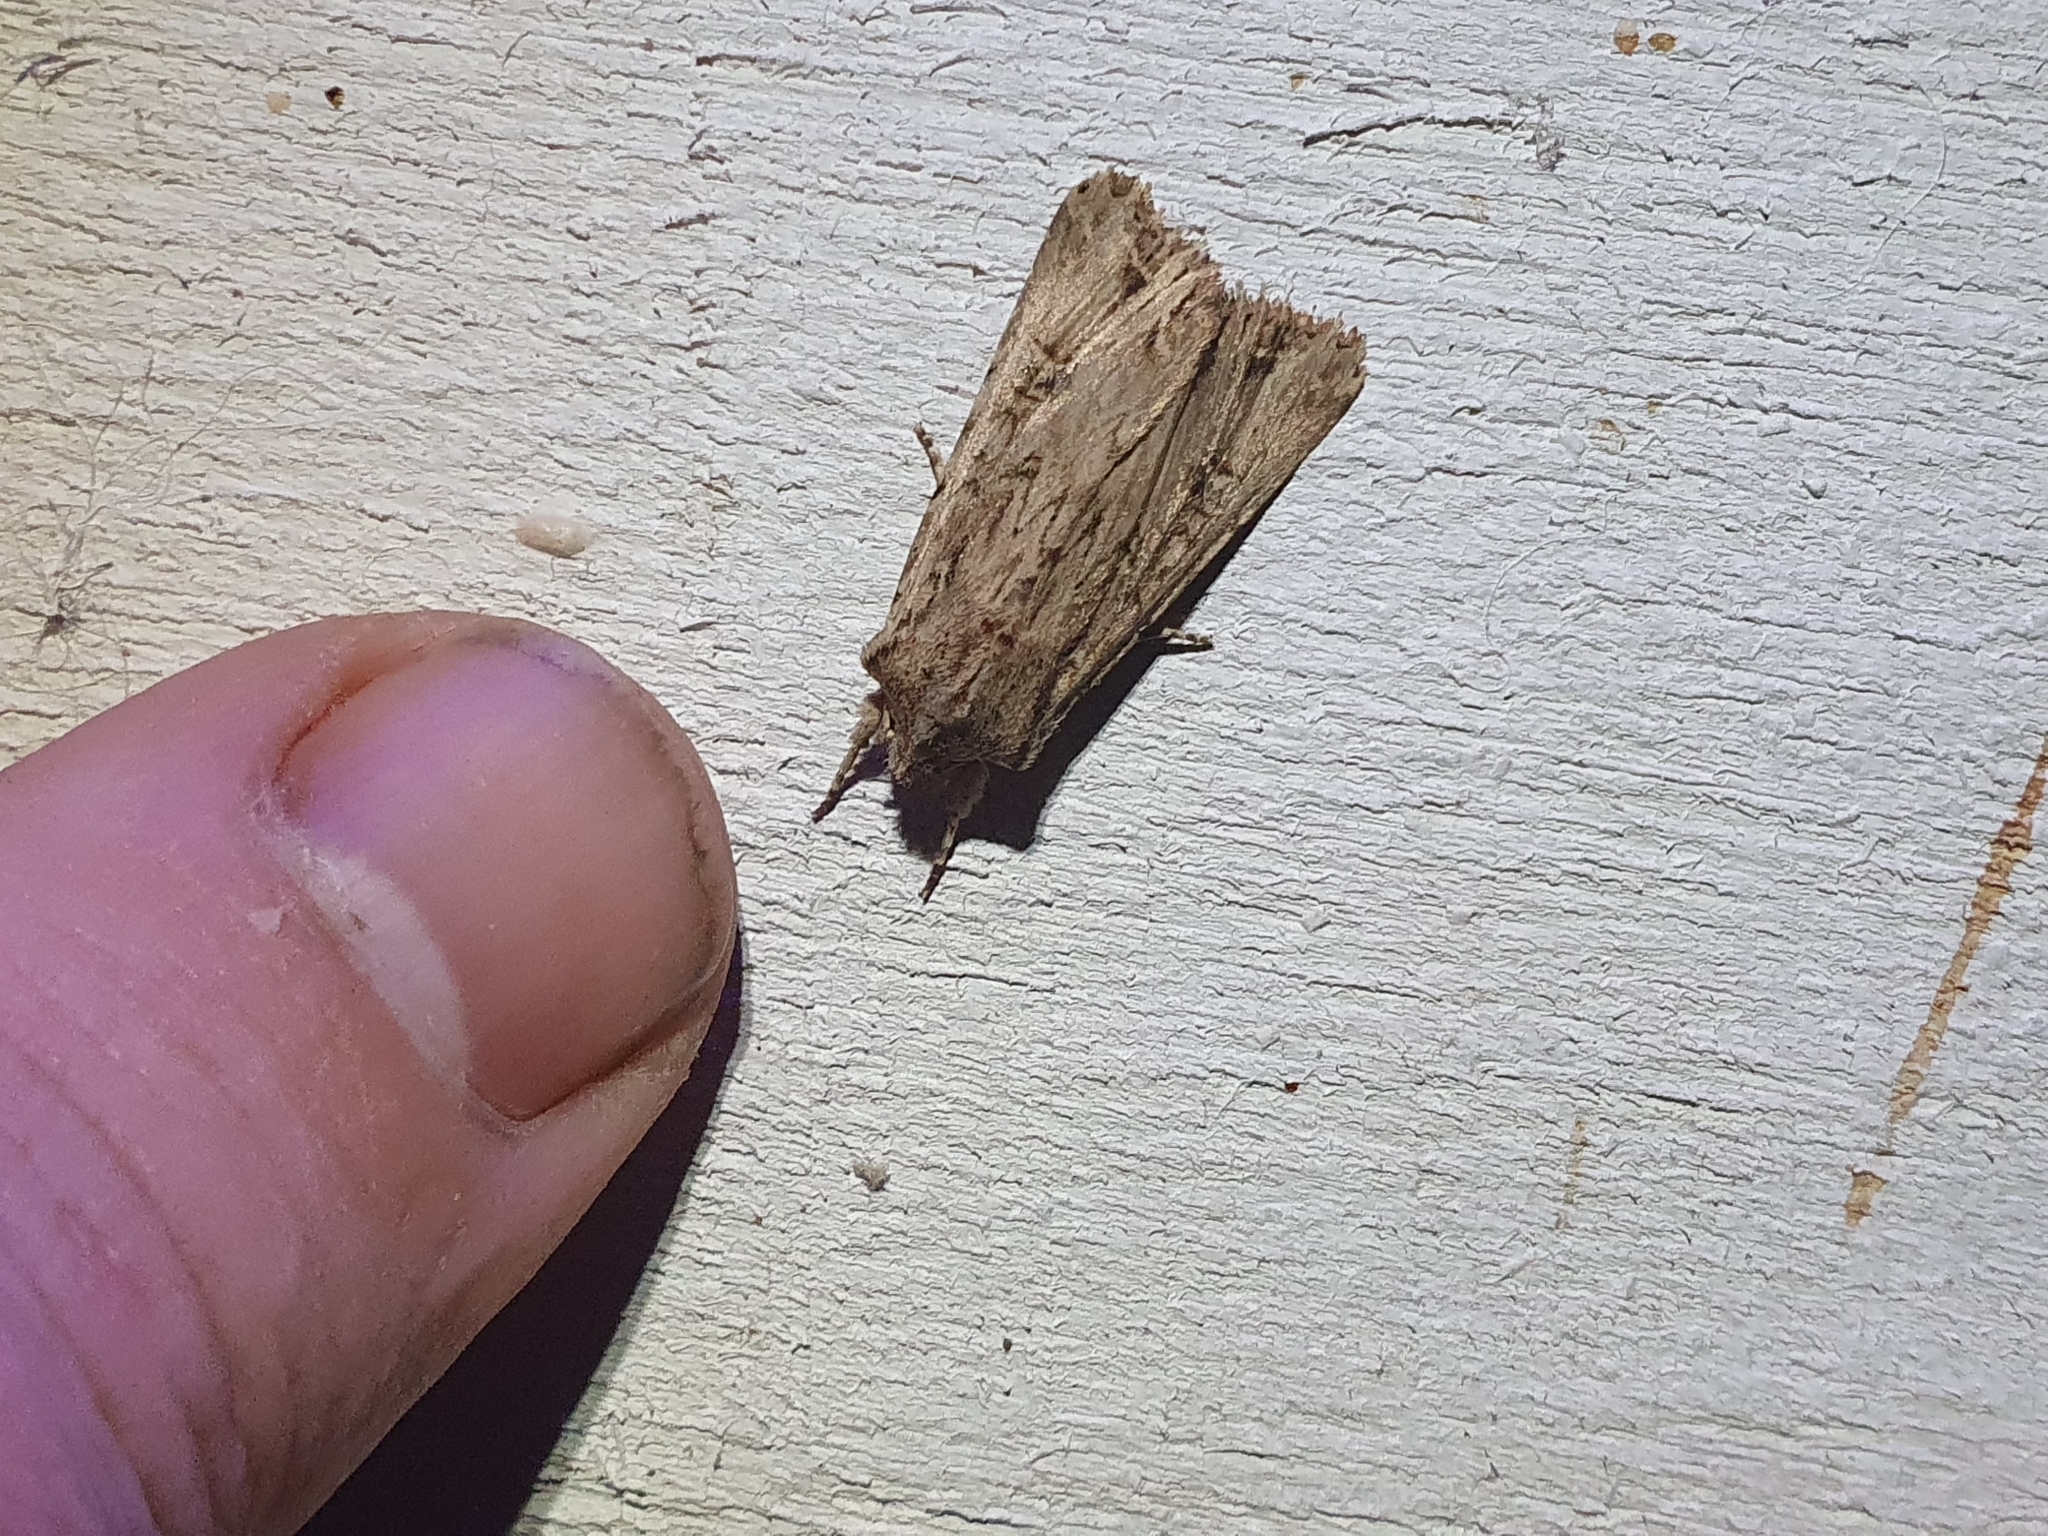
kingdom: Animalia
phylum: Arthropoda
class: Insecta
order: Lepidoptera
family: Noctuidae
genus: Ichneutica
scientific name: Ichneutica lignana
